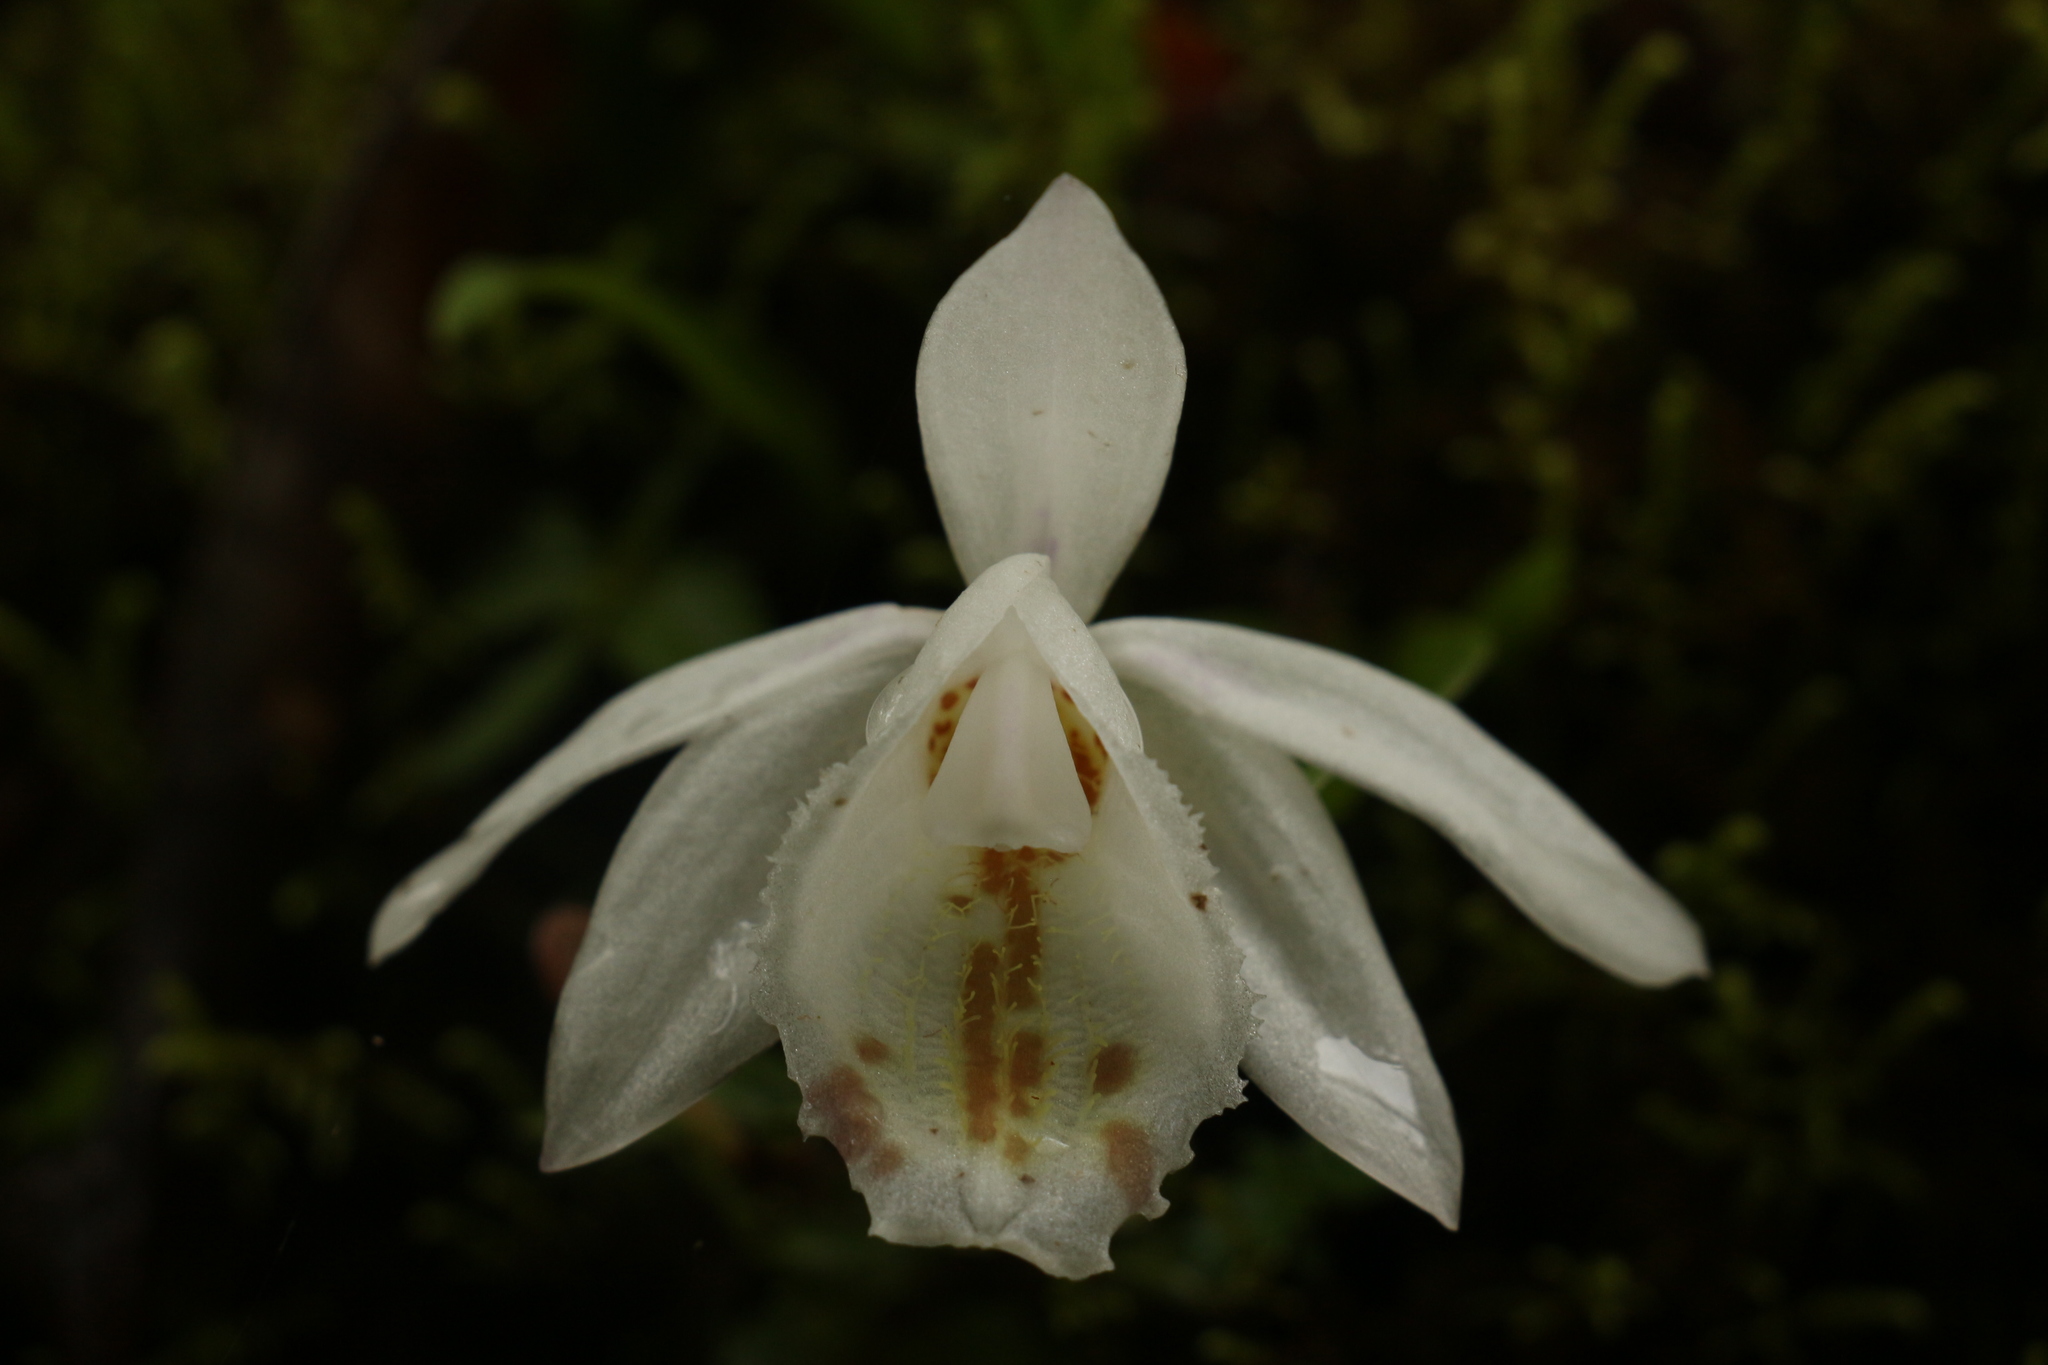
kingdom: Plantae
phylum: Tracheophyta
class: Liliopsida
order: Asparagales
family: Orchidaceae
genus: Pleione
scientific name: Pleione hookeriana
